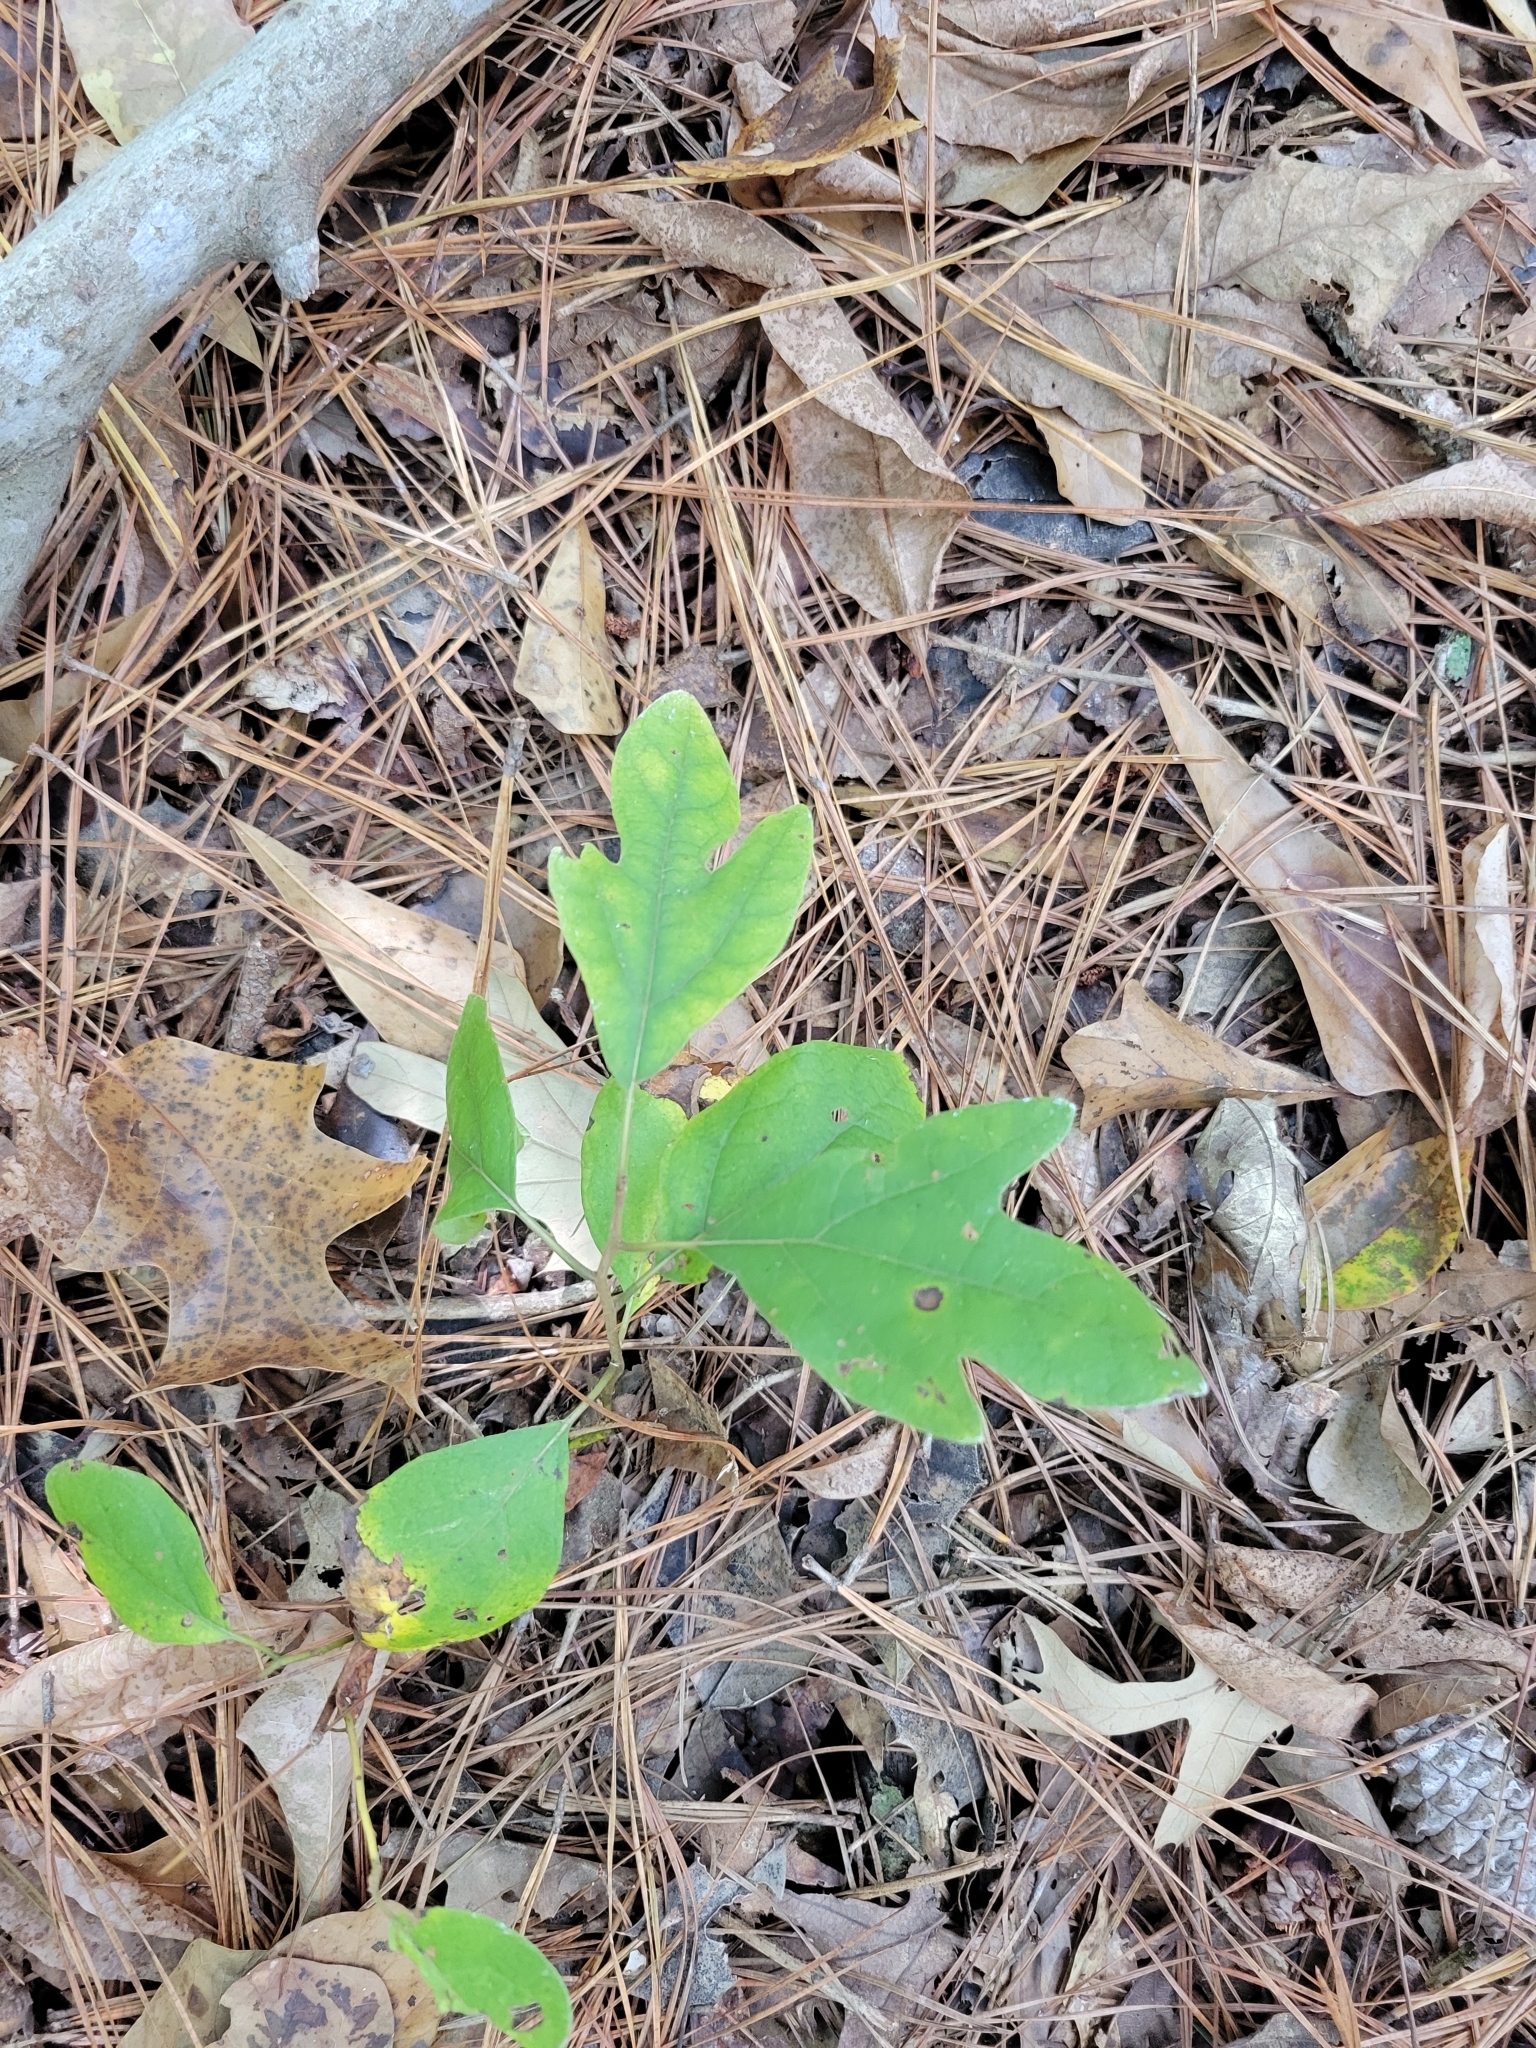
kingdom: Plantae
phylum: Tracheophyta
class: Magnoliopsida
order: Laurales
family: Lauraceae
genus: Sassafras
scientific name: Sassafras albidum
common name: Sassafras
